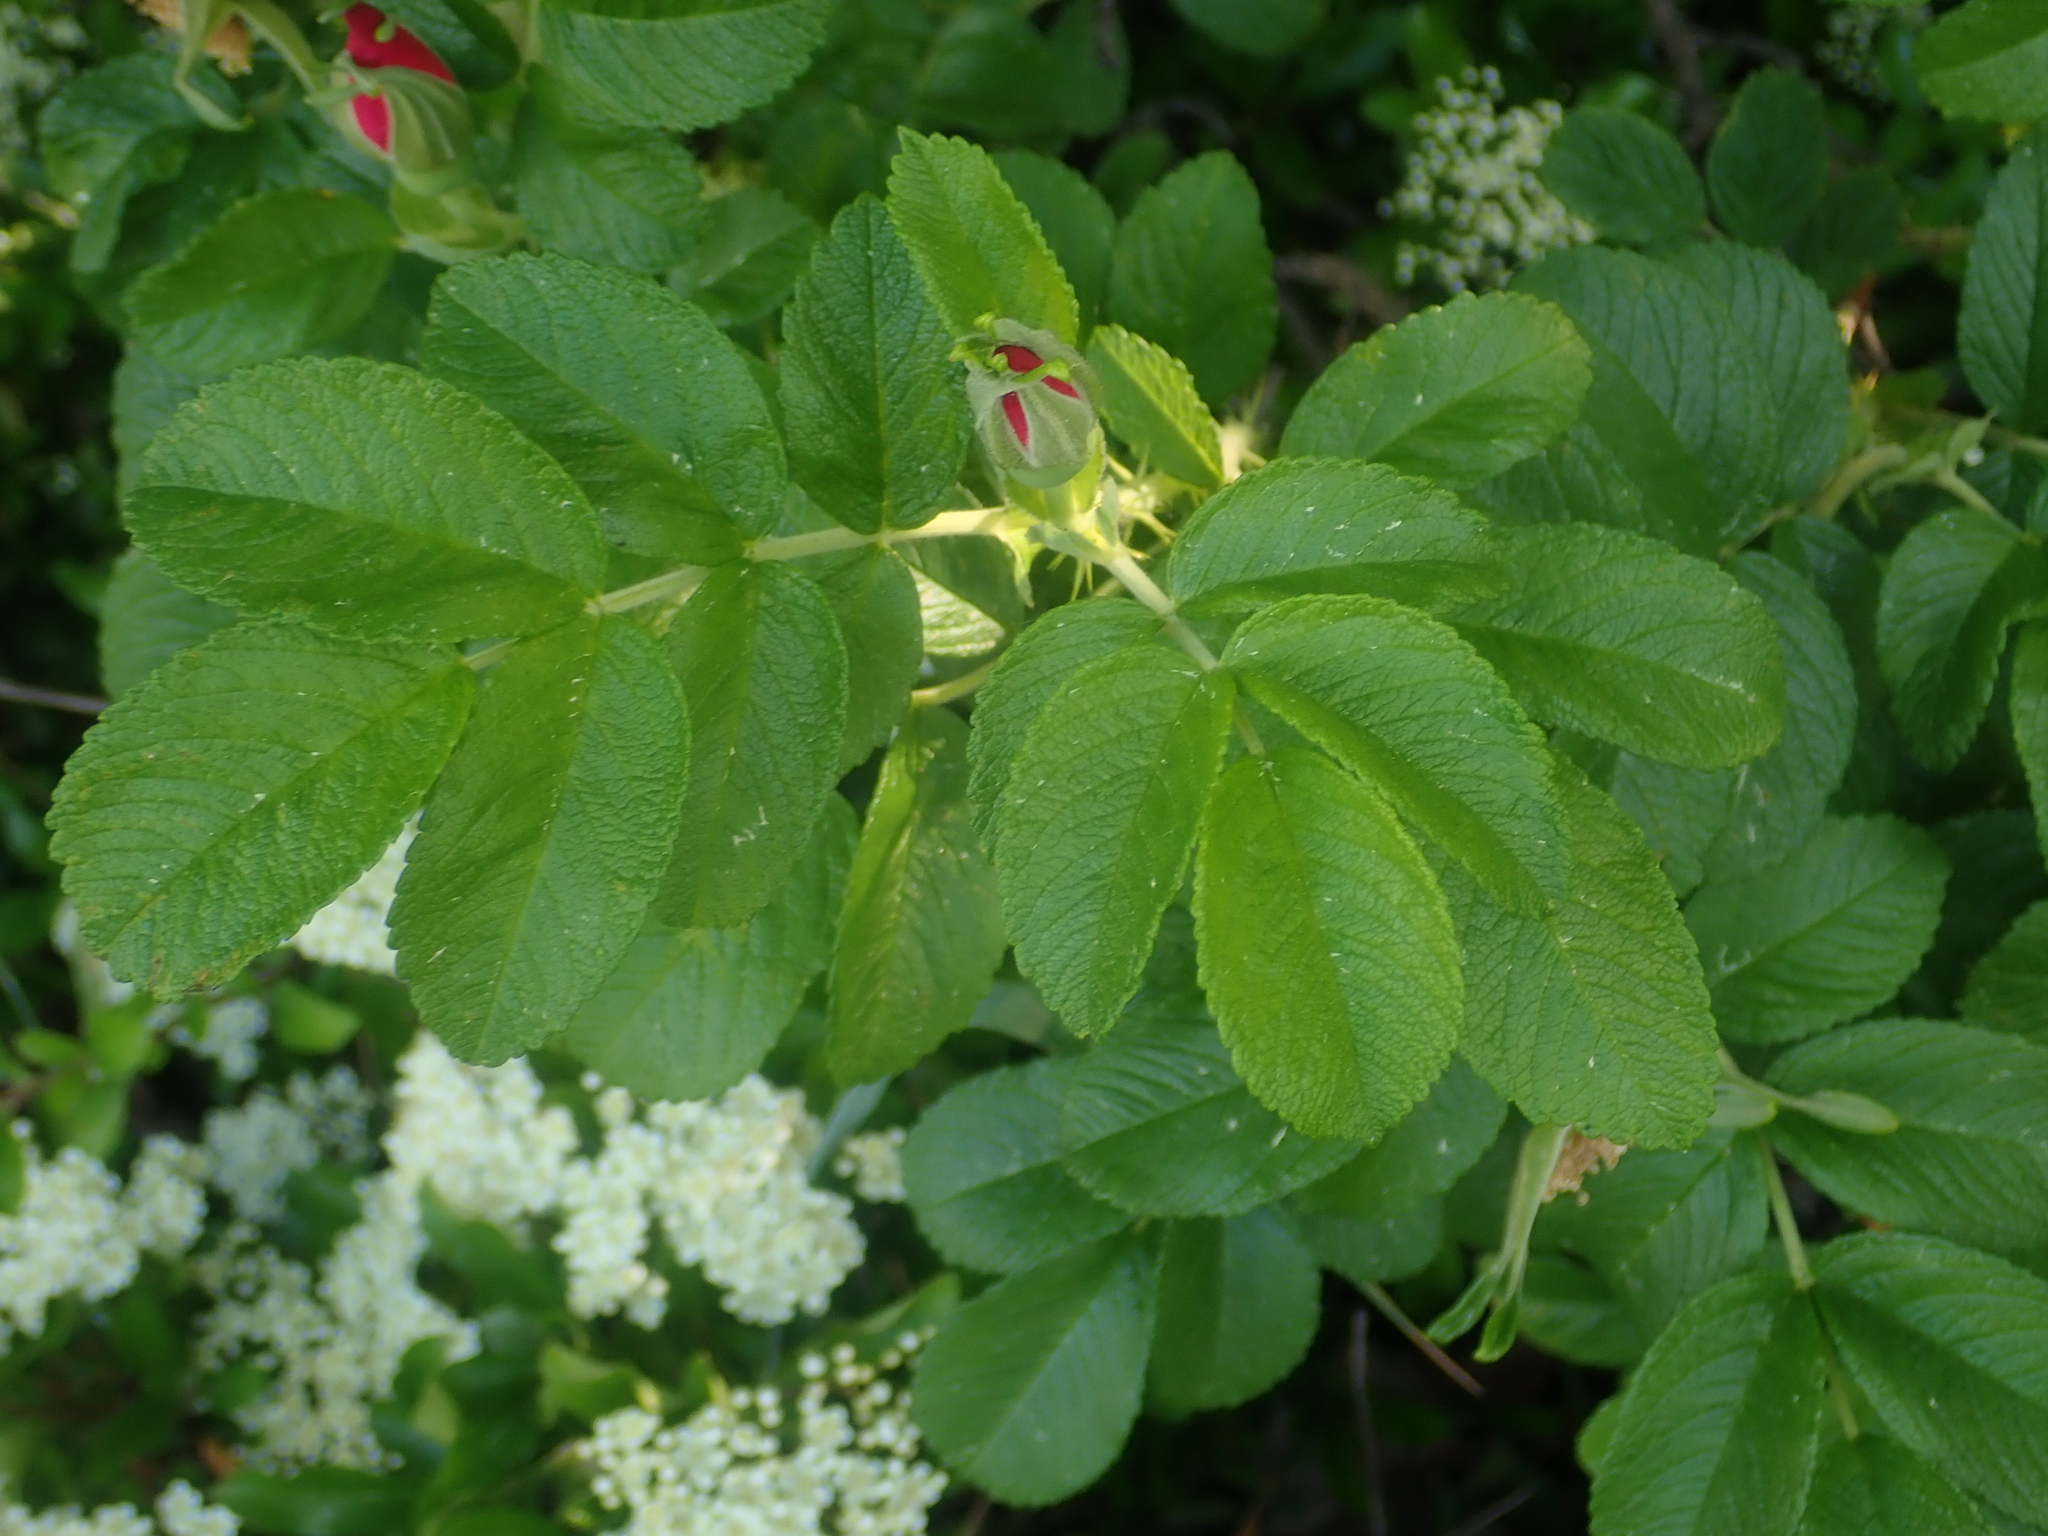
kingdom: Plantae
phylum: Tracheophyta
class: Magnoliopsida
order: Rosales
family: Rosaceae
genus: Rosa
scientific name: Rosa rugosa
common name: Japanese rose
